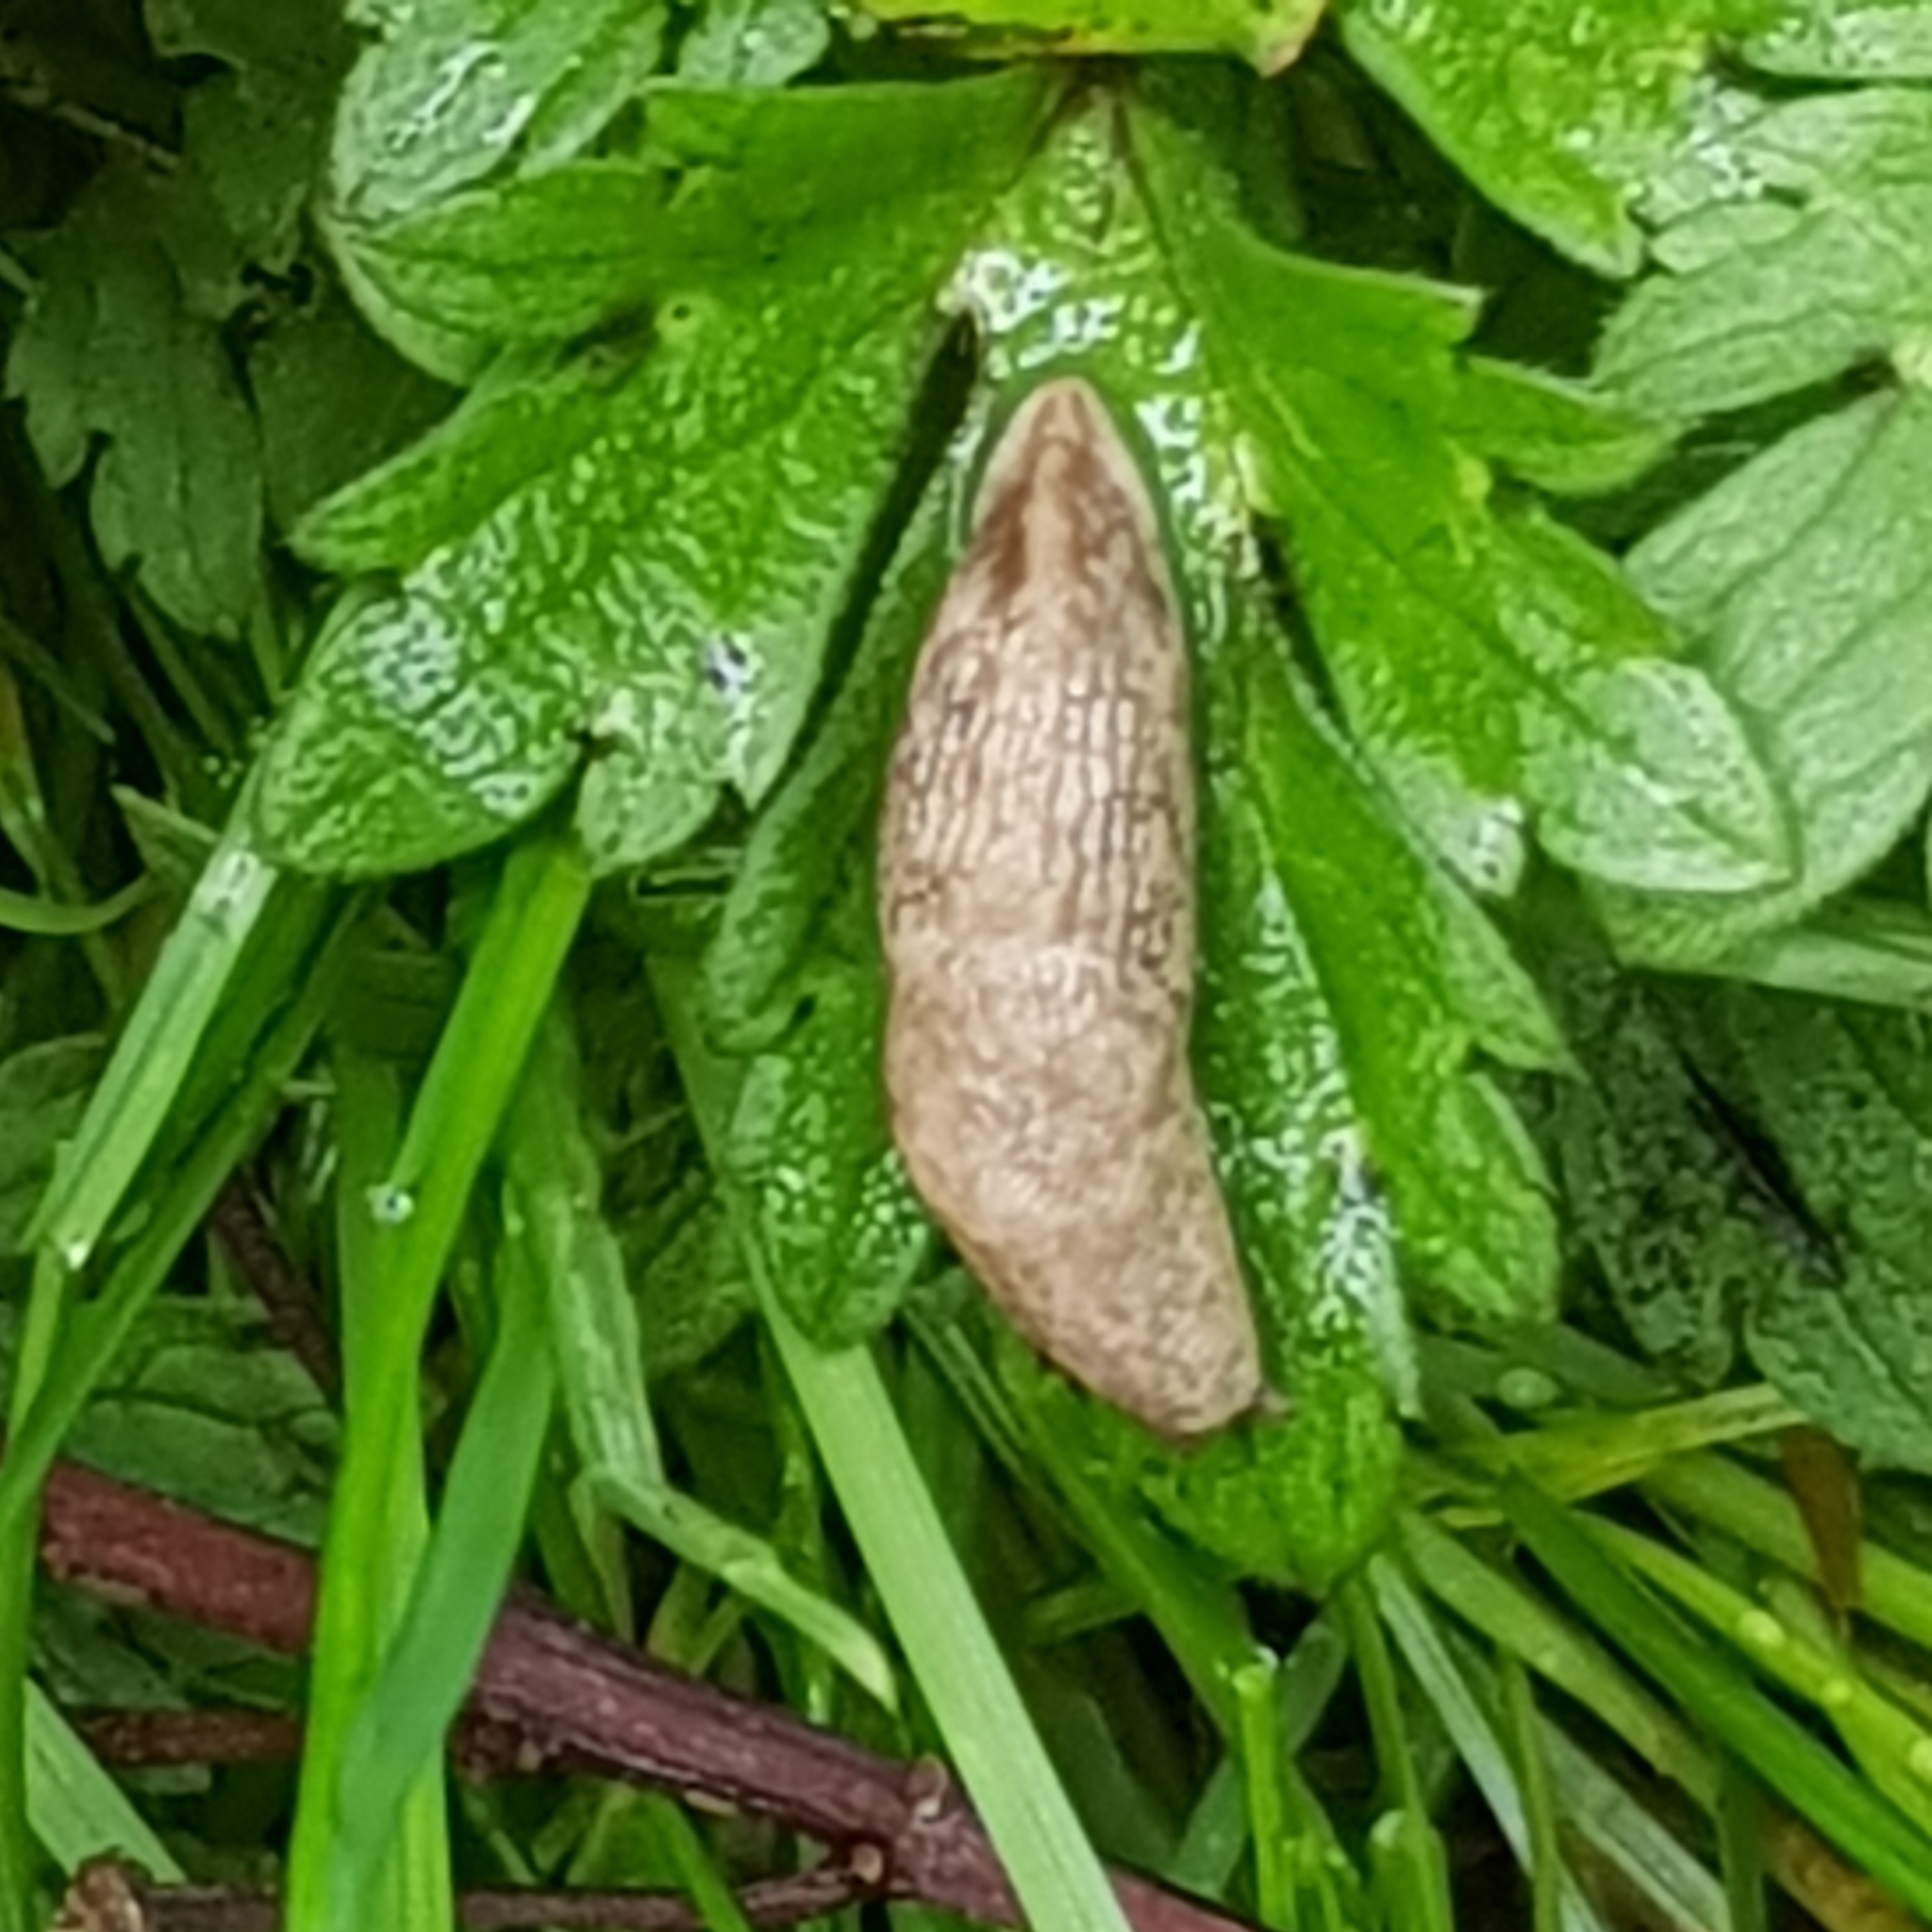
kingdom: Animalia
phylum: Mollusca
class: Gastropoda
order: Stylommatophora
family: Agriolimacidae
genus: Deroceras
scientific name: Deroceras reticulatum
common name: Gray field slug
